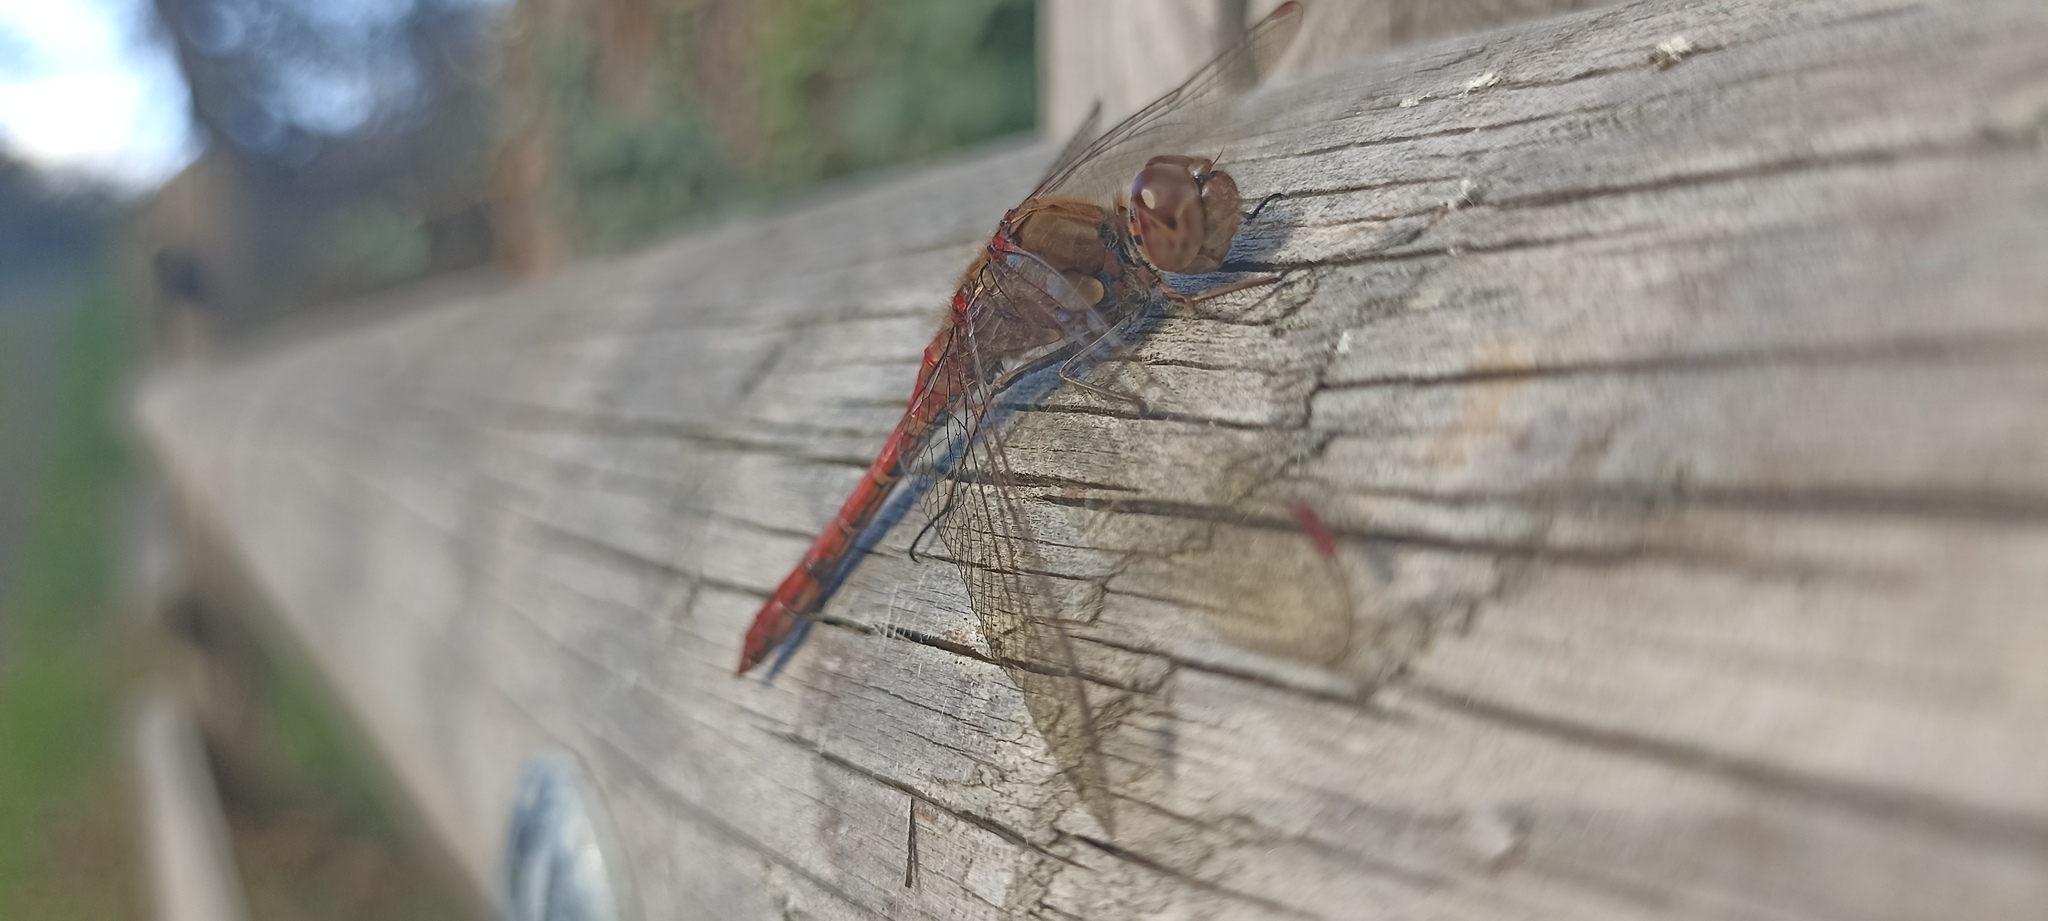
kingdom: Animalia
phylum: Arthropoda
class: Insecta
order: Odonata
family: Libellulidae
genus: Sympetrum
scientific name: Sympetrum striolatum
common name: Common darter
